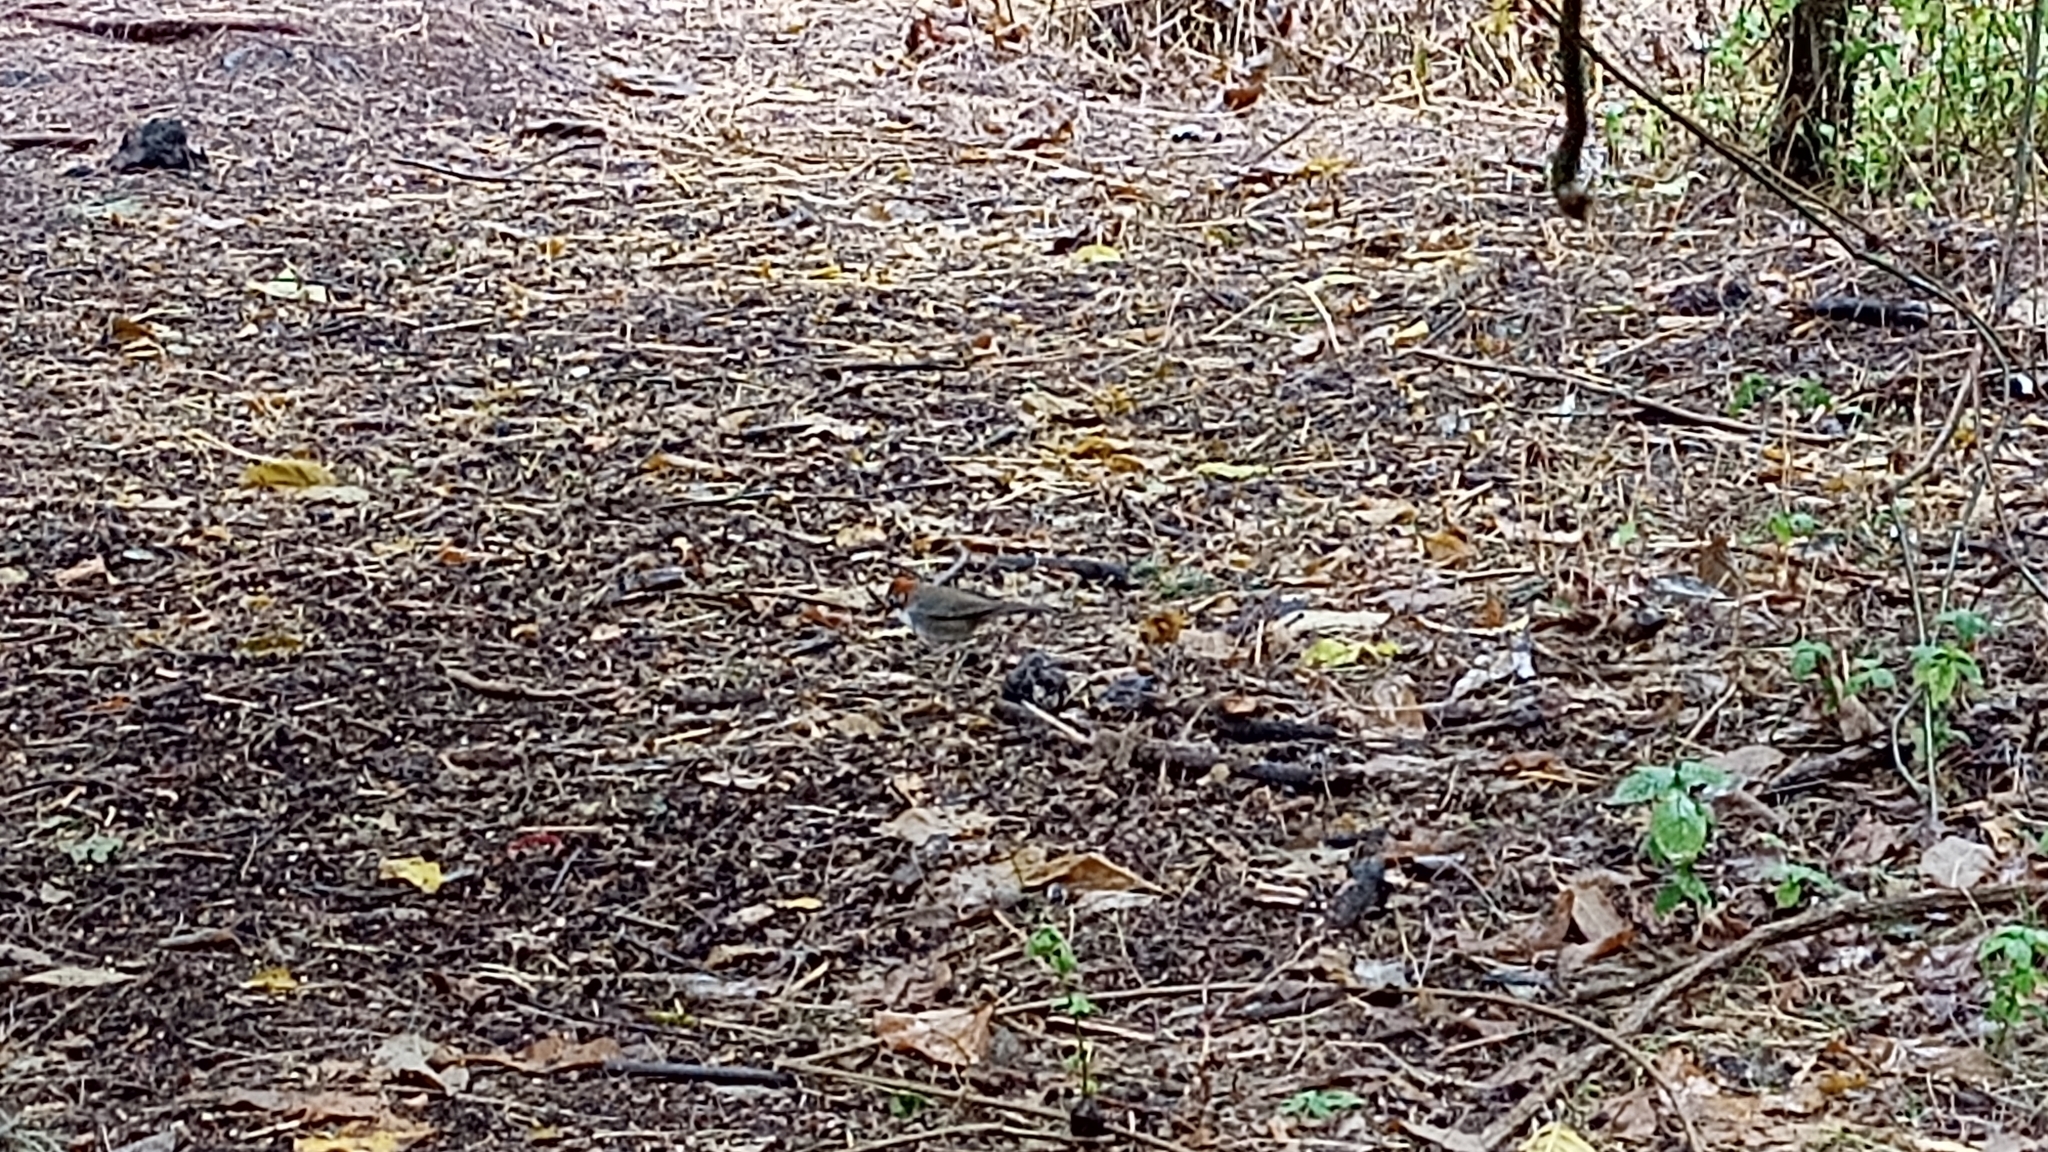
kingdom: Animalia
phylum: Chordata
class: Aves
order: Passeriformes
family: Passerellidae
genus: Melozone
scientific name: Melozone kieneri
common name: Rusty-crowned ground-sparrow
